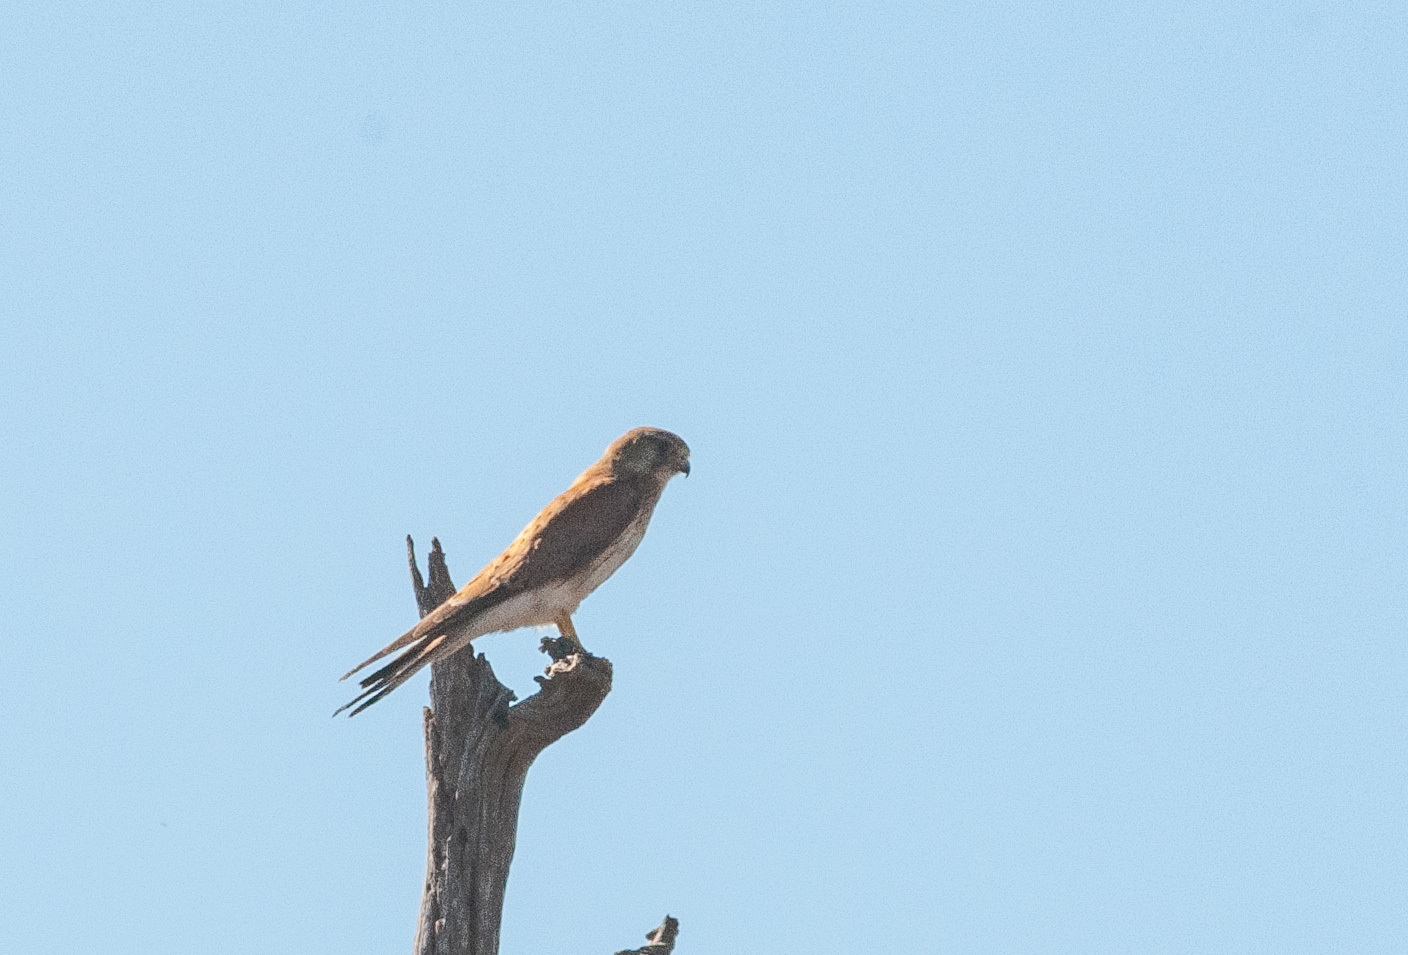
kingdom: Animalia
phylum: Chordata
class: Aves
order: Falconiformes
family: Falconidae
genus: Falco
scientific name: Falco cenchroides
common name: Nankeen kestrel
